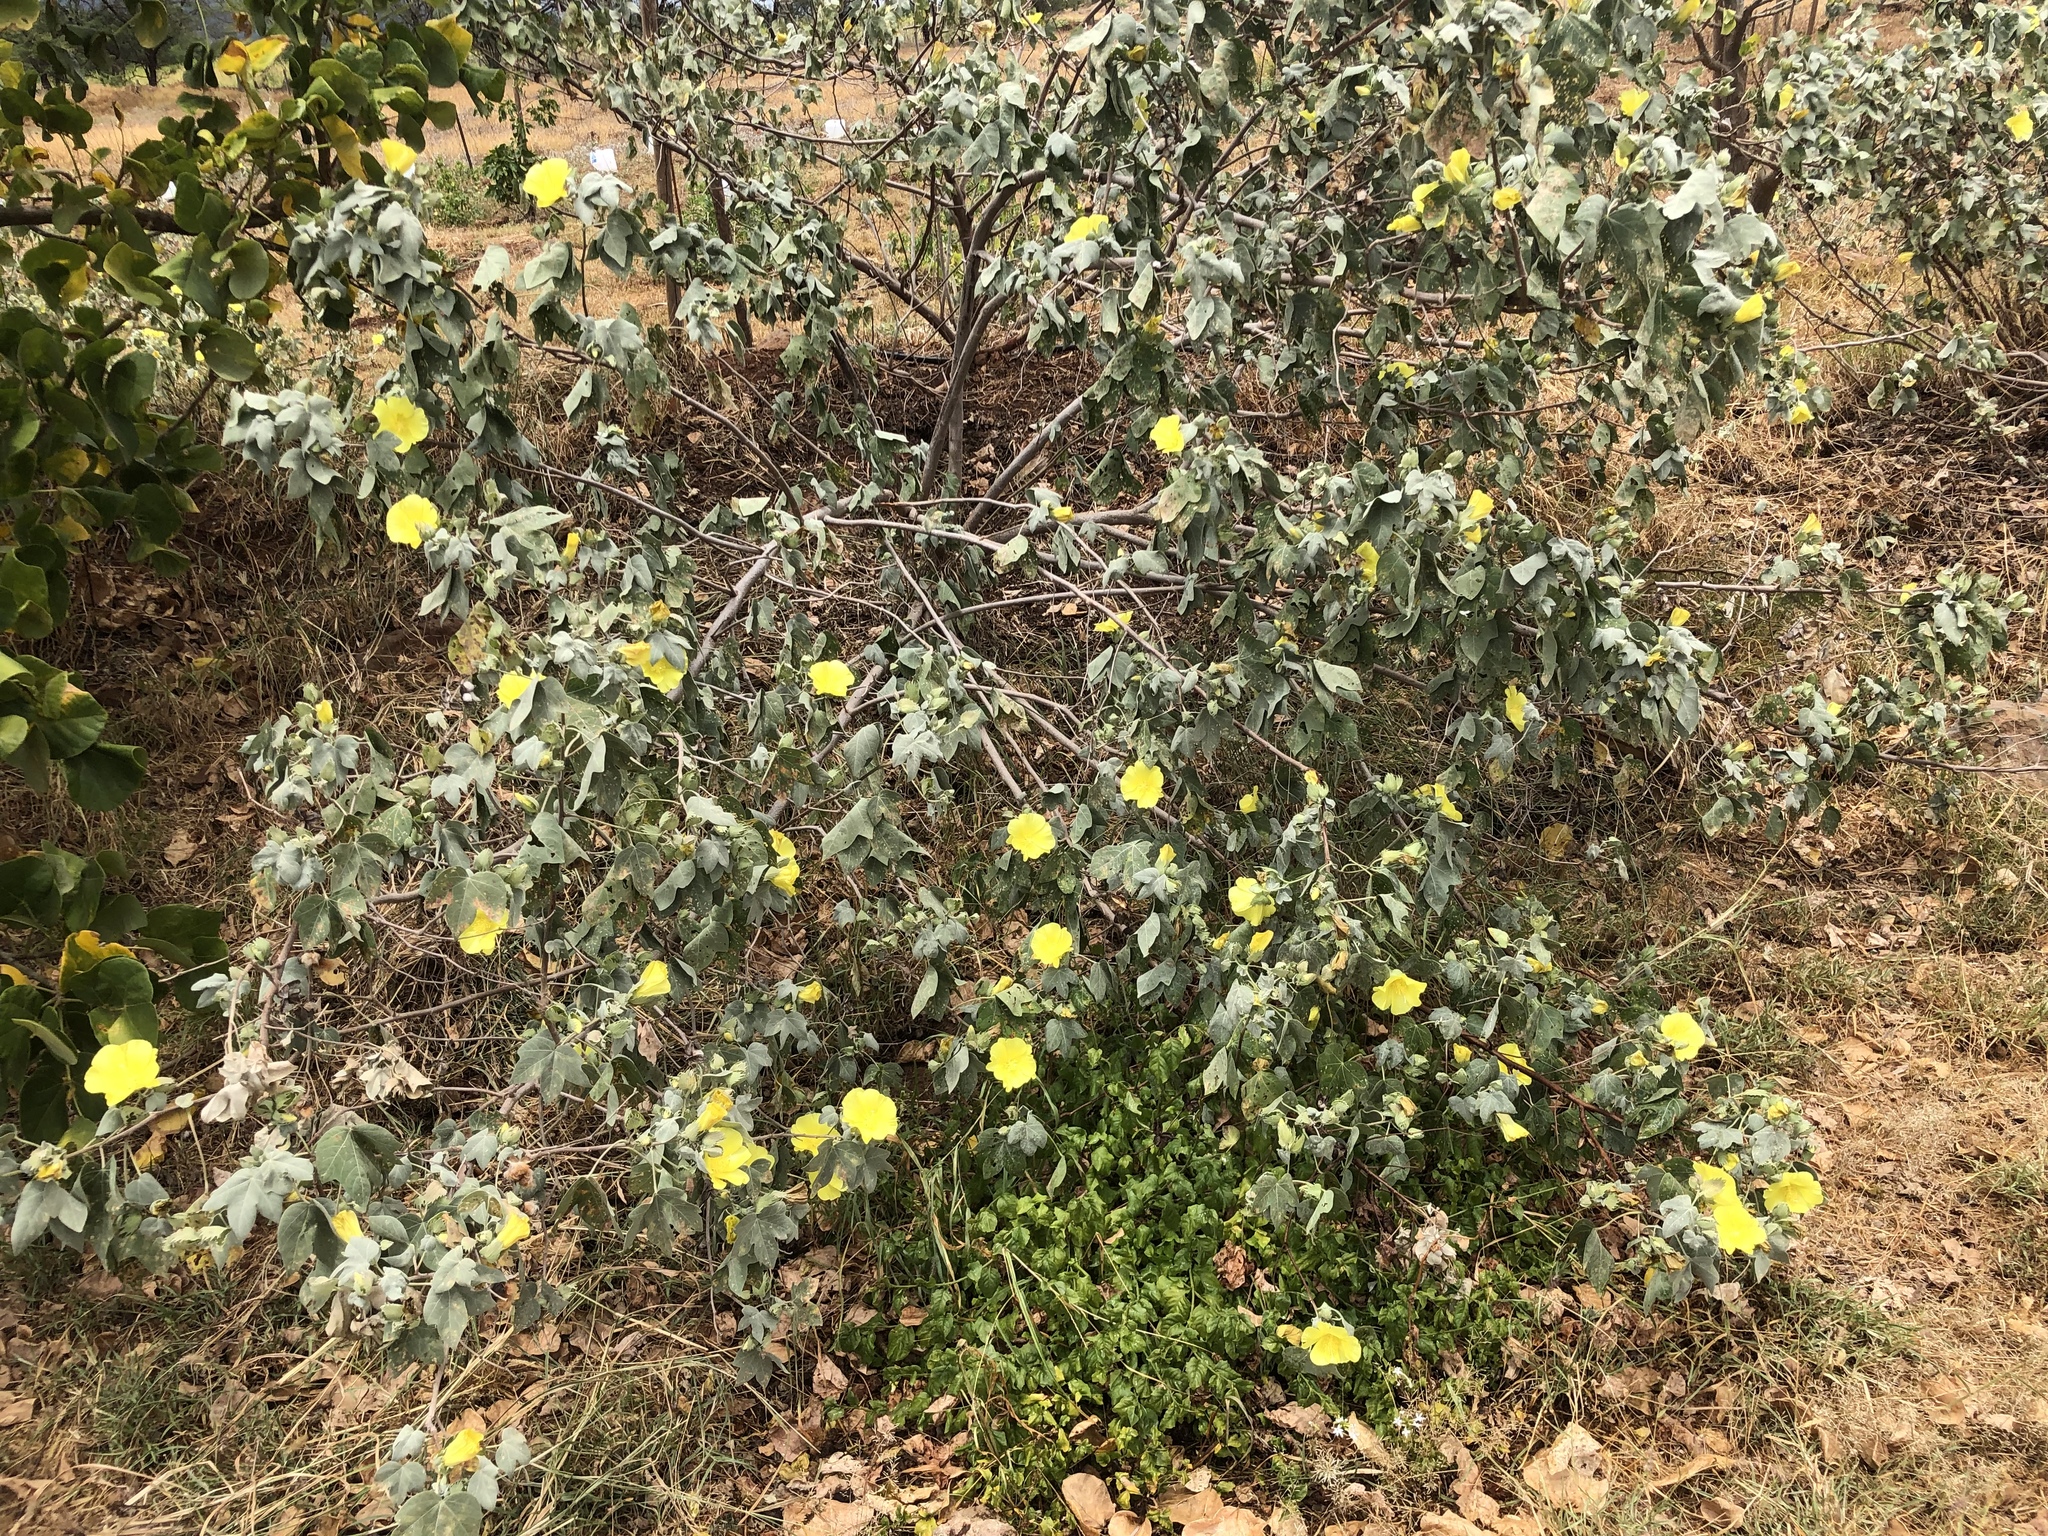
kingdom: Plantae
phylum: Tracheophyta
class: Magnoliopsida
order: Malvales
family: Malvaceae
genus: Gossypium
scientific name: Gossypium tomentosum
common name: Hawaiian cotton
